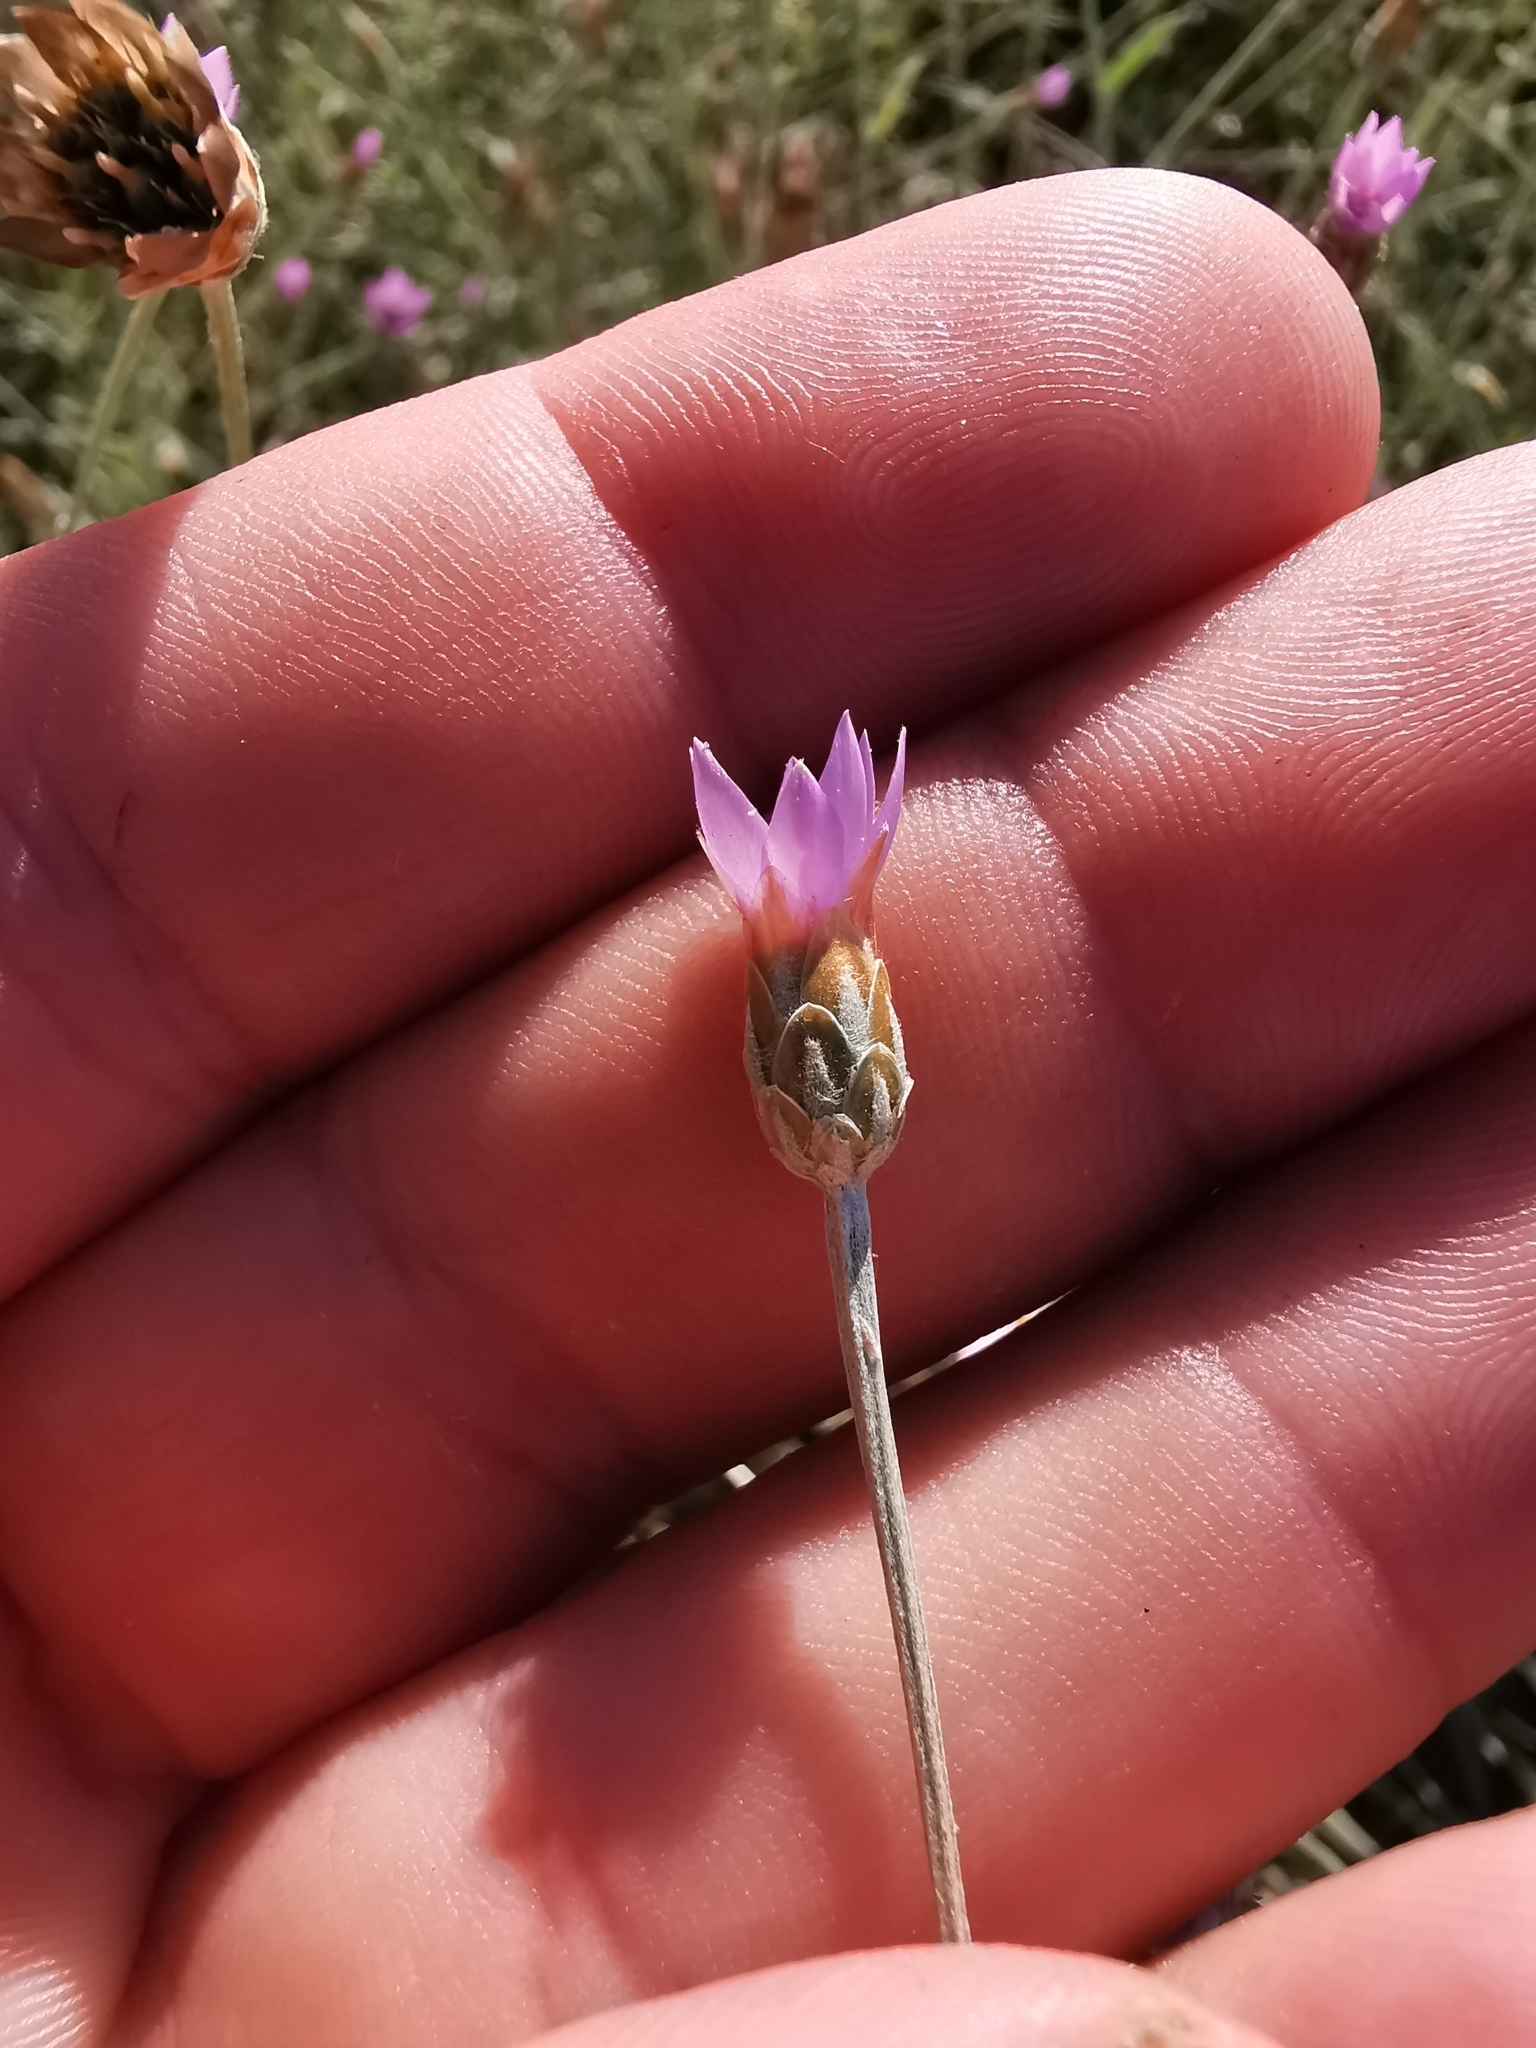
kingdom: Plantae
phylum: Tracheophyta
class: Magnoliopsida
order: Asterales
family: Asteraceae
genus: Xeranthemum
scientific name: Xeranthemum cylindraceum
